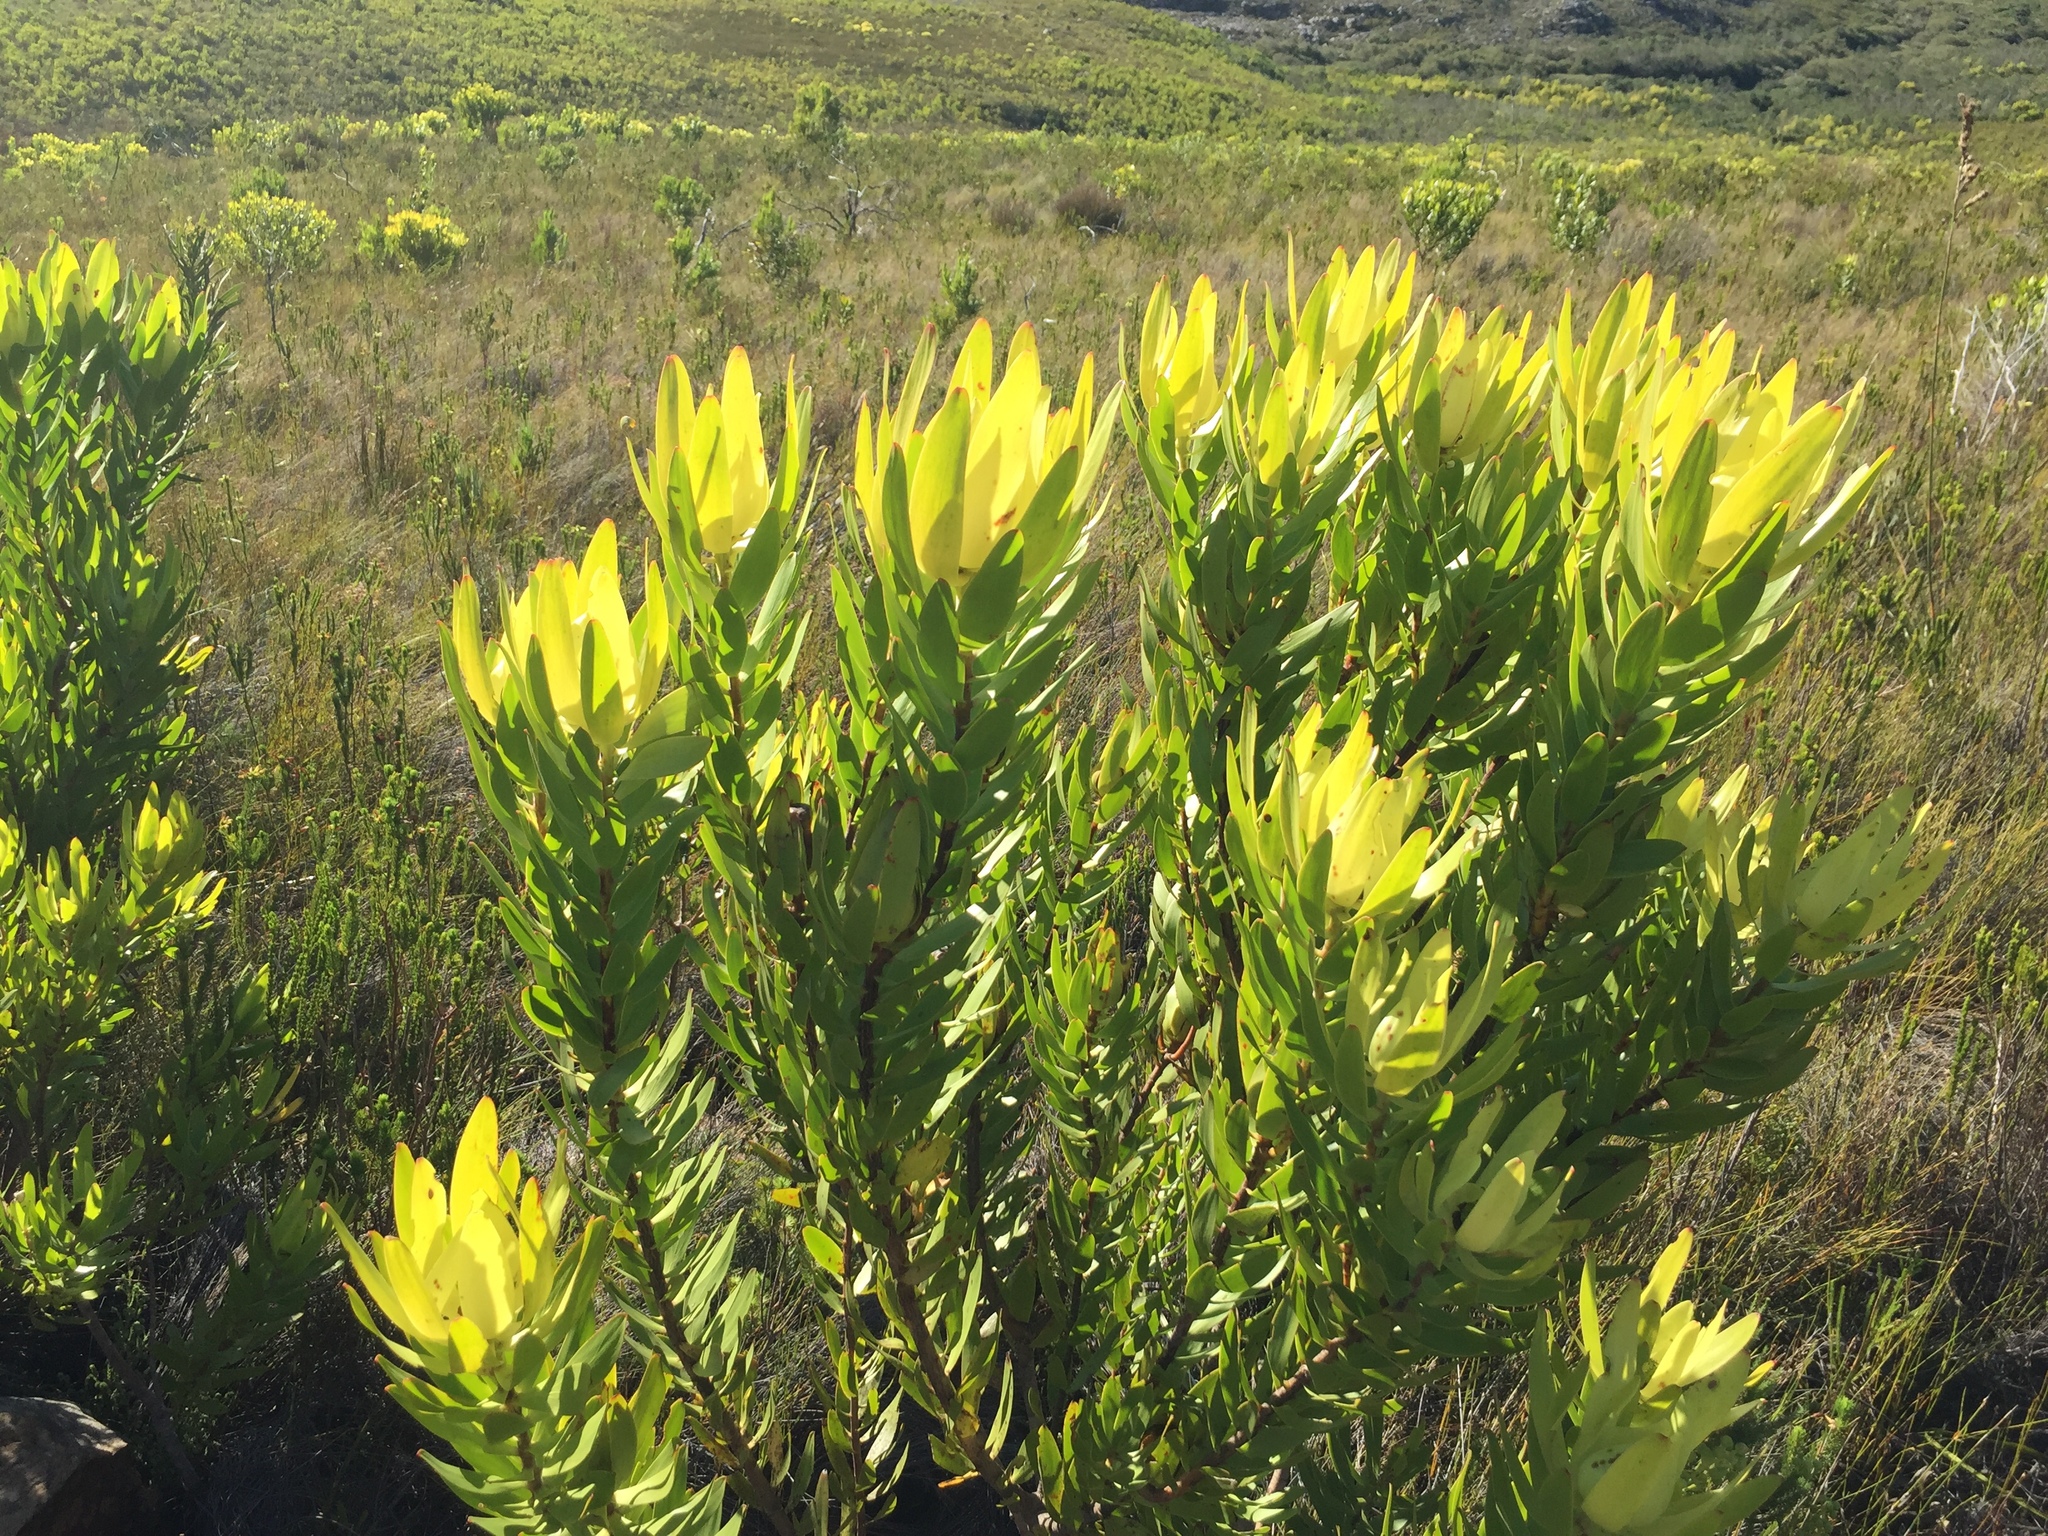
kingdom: Plantae
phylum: Tracheophyta
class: Magnoliopsida
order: Proteales
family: Proteaceae
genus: Leucadendron
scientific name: Leucadendron laureolum
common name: Golden sunshinebush
